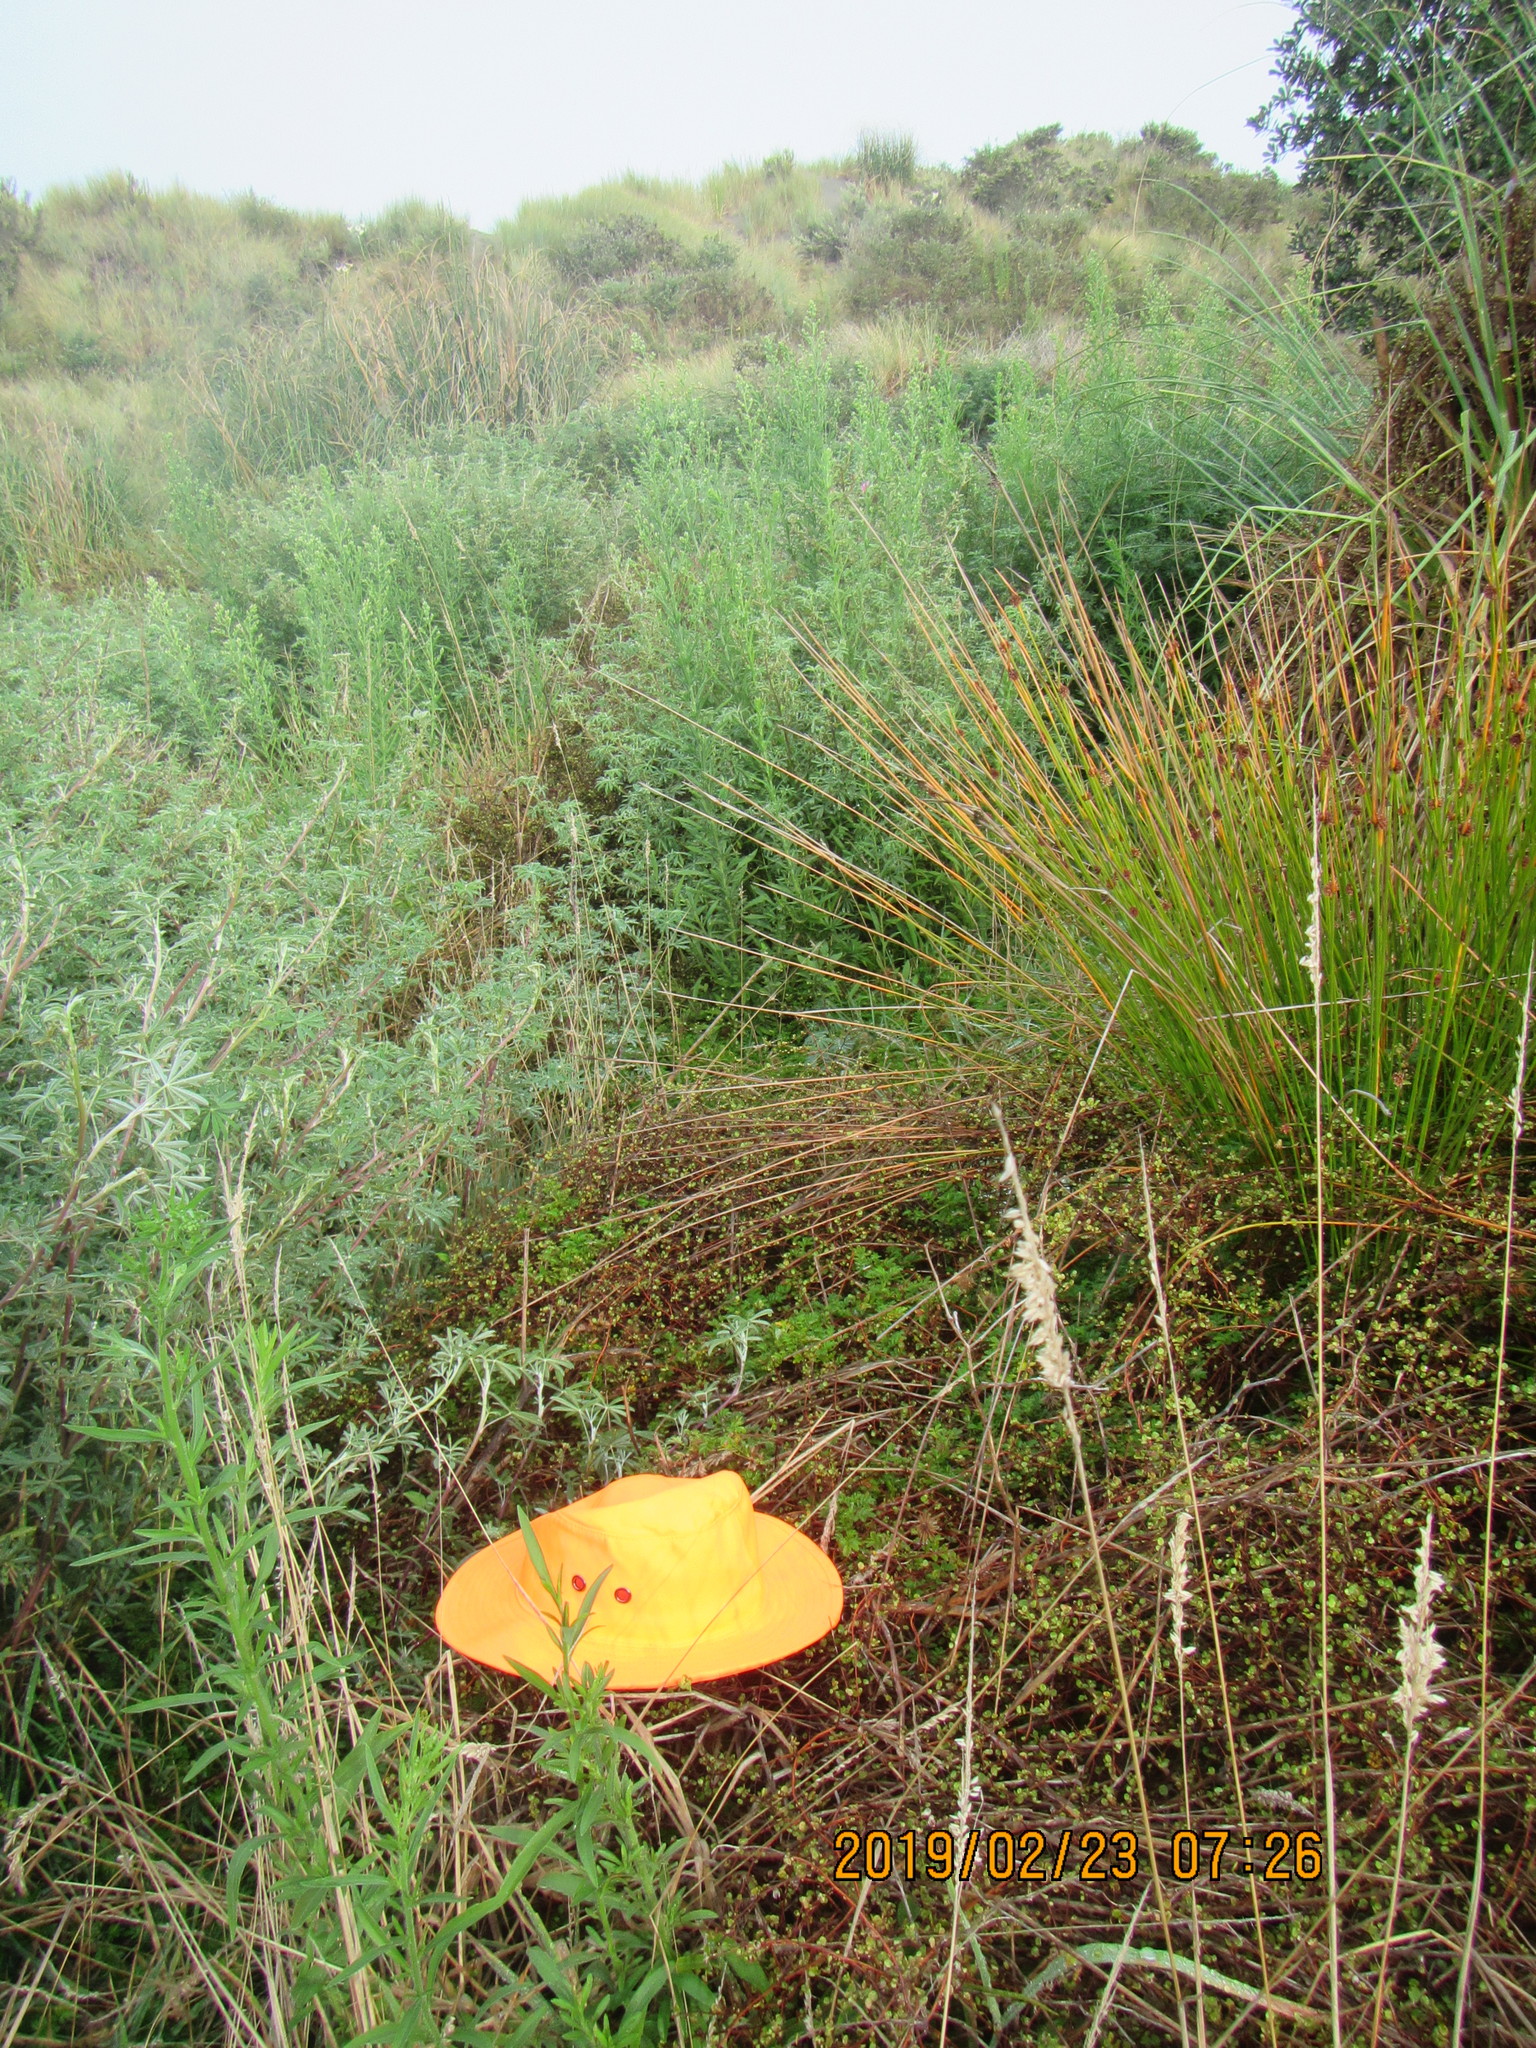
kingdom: Plantae
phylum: Tracheophyta
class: Magnoliopsida
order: Rosales
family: Rosaceae
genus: Acaena
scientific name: Acaena novae-zelandiae
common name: Pirri-pirri-bur
